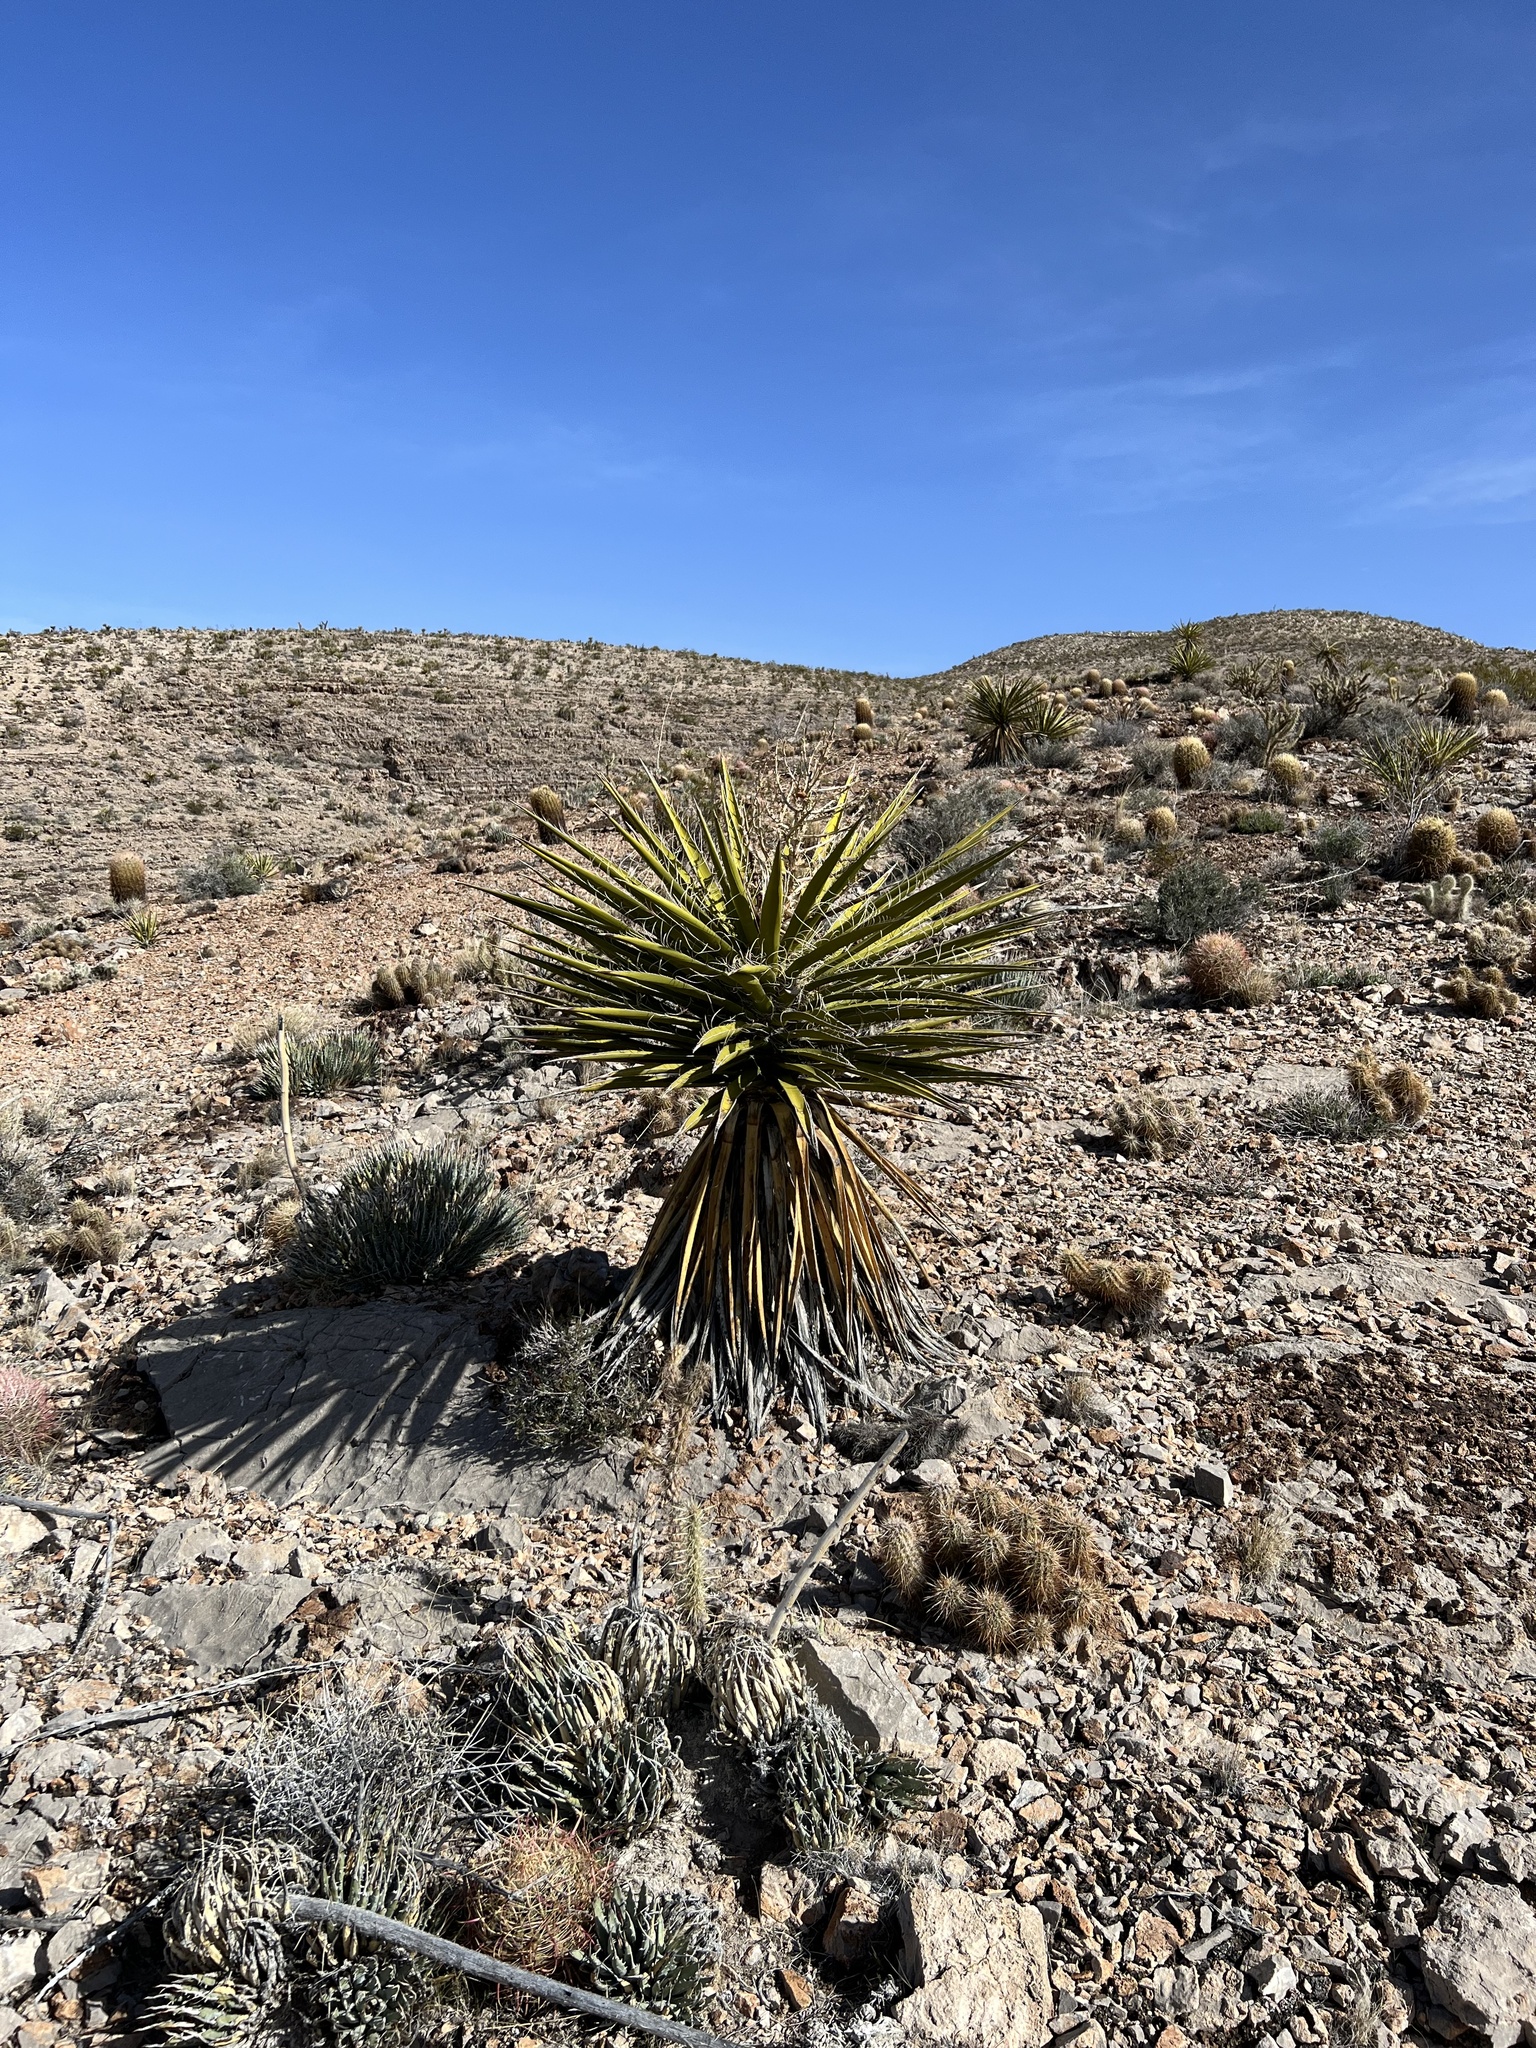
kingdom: Plantae
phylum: Tracheophyta
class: Liliopsida
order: Asparagales
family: Asparagaceae
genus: Yucca
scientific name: Yucca schidigera
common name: Mojave yucca
